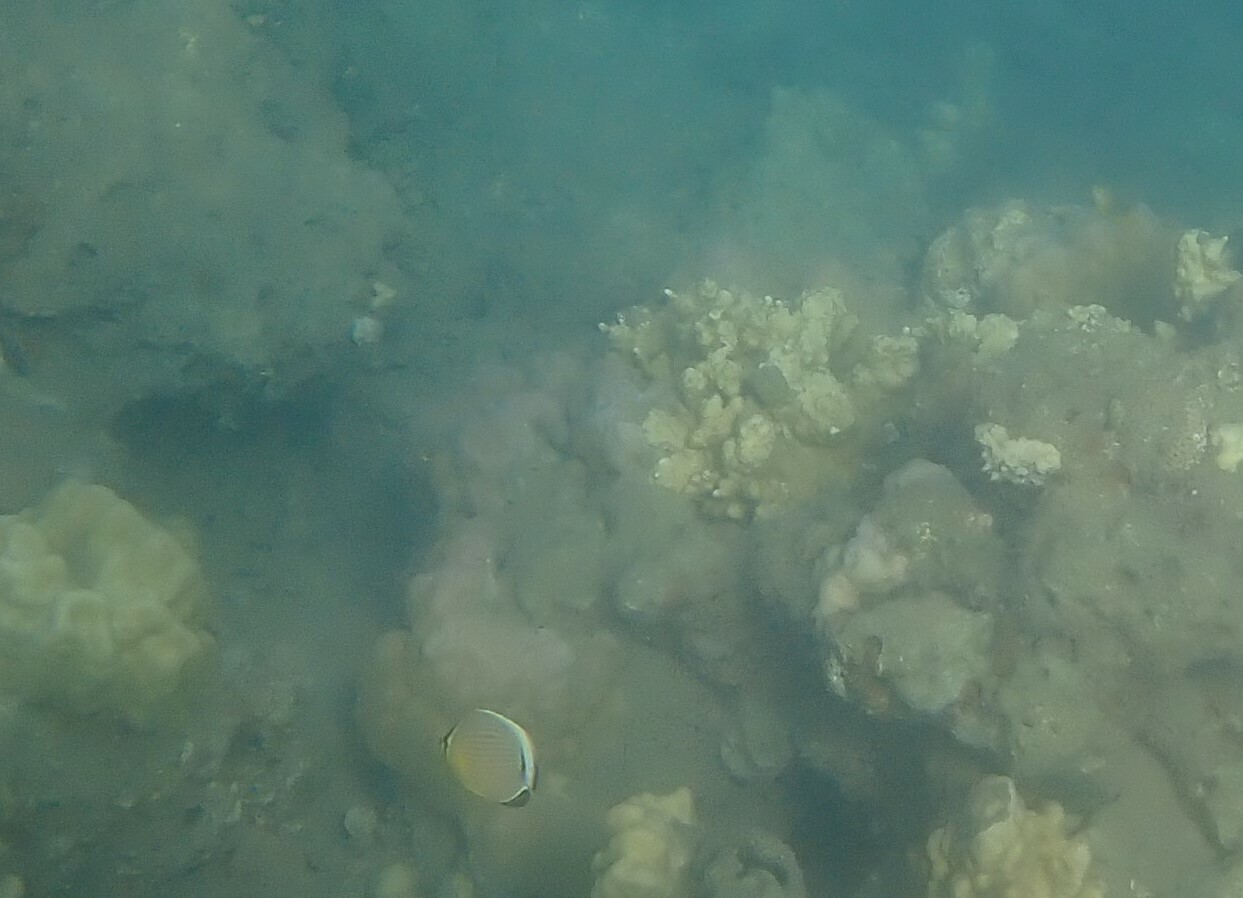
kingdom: Animalia
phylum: Chordata
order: Perciformes
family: Chaetodontidae
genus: Chaetodon
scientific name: Chaetodon lunulatus
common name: Redfin butterflyfish
